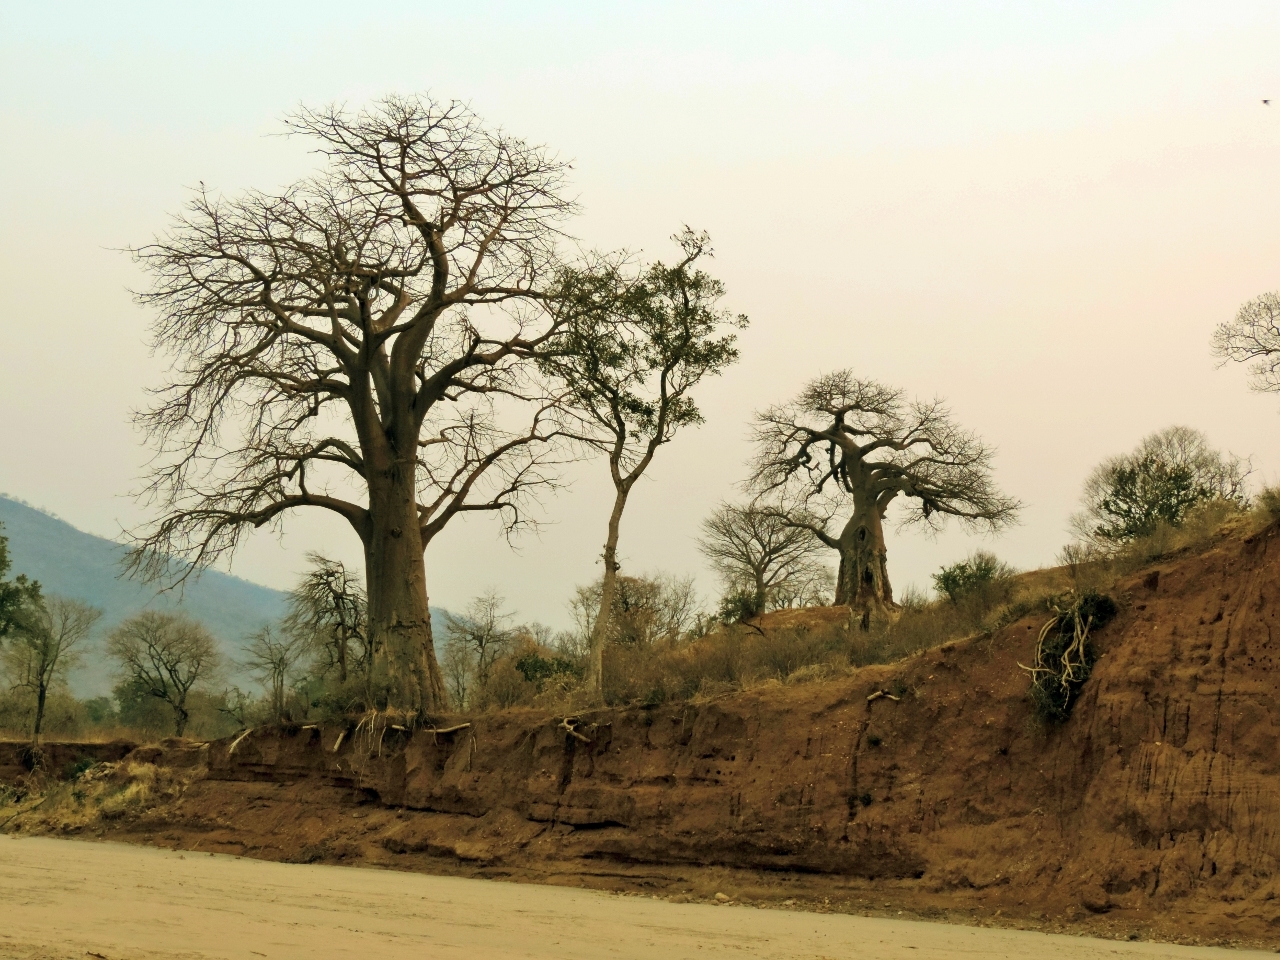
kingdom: Plantae
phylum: Tracheophyta
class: Magnoliopsida
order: Malvales
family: Malvaceae
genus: Adansonia
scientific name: Adansonia digitata
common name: Dead-rat-tree
